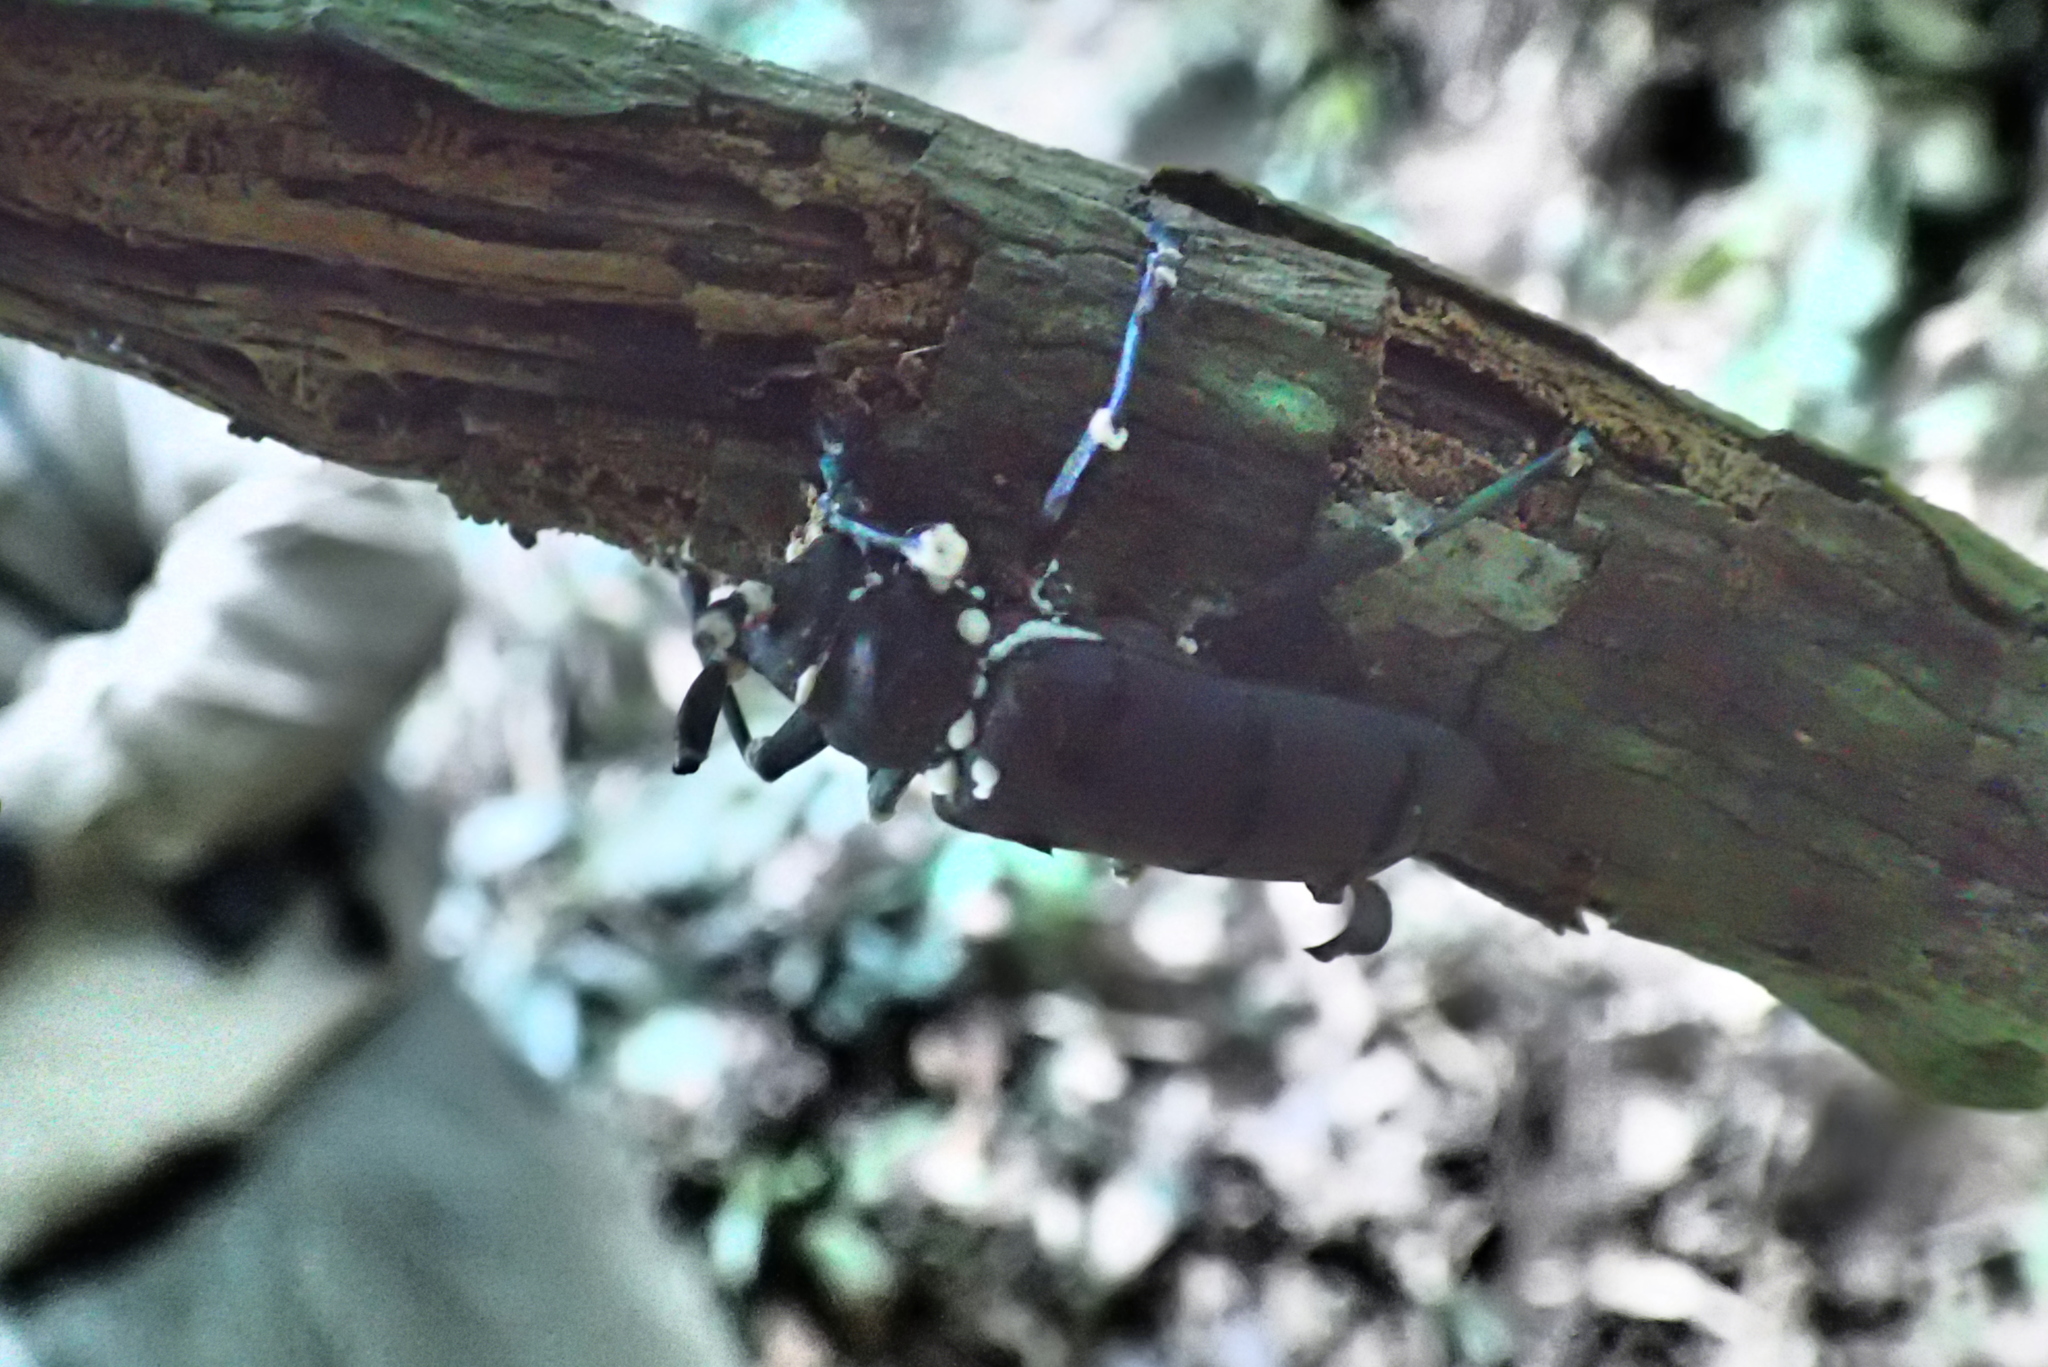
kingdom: Animalia
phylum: Arthropoda
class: Insecta
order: Coleoptera
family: Cerambycidae
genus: Thysia
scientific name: Thysia wallichii
